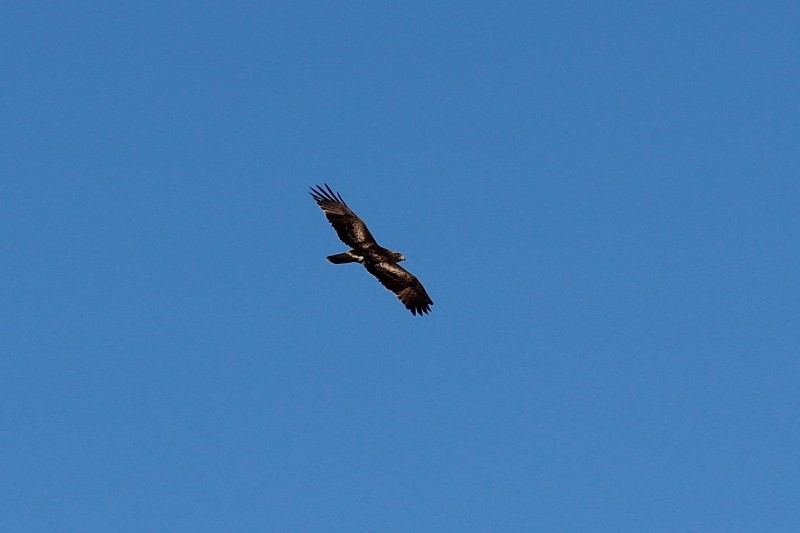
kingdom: Animalia
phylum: Chordata
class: Aves
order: Accipitriformes
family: Accipitridae
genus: Hieraaetus
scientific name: Hieraaetus pennatus
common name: Booted eagle
